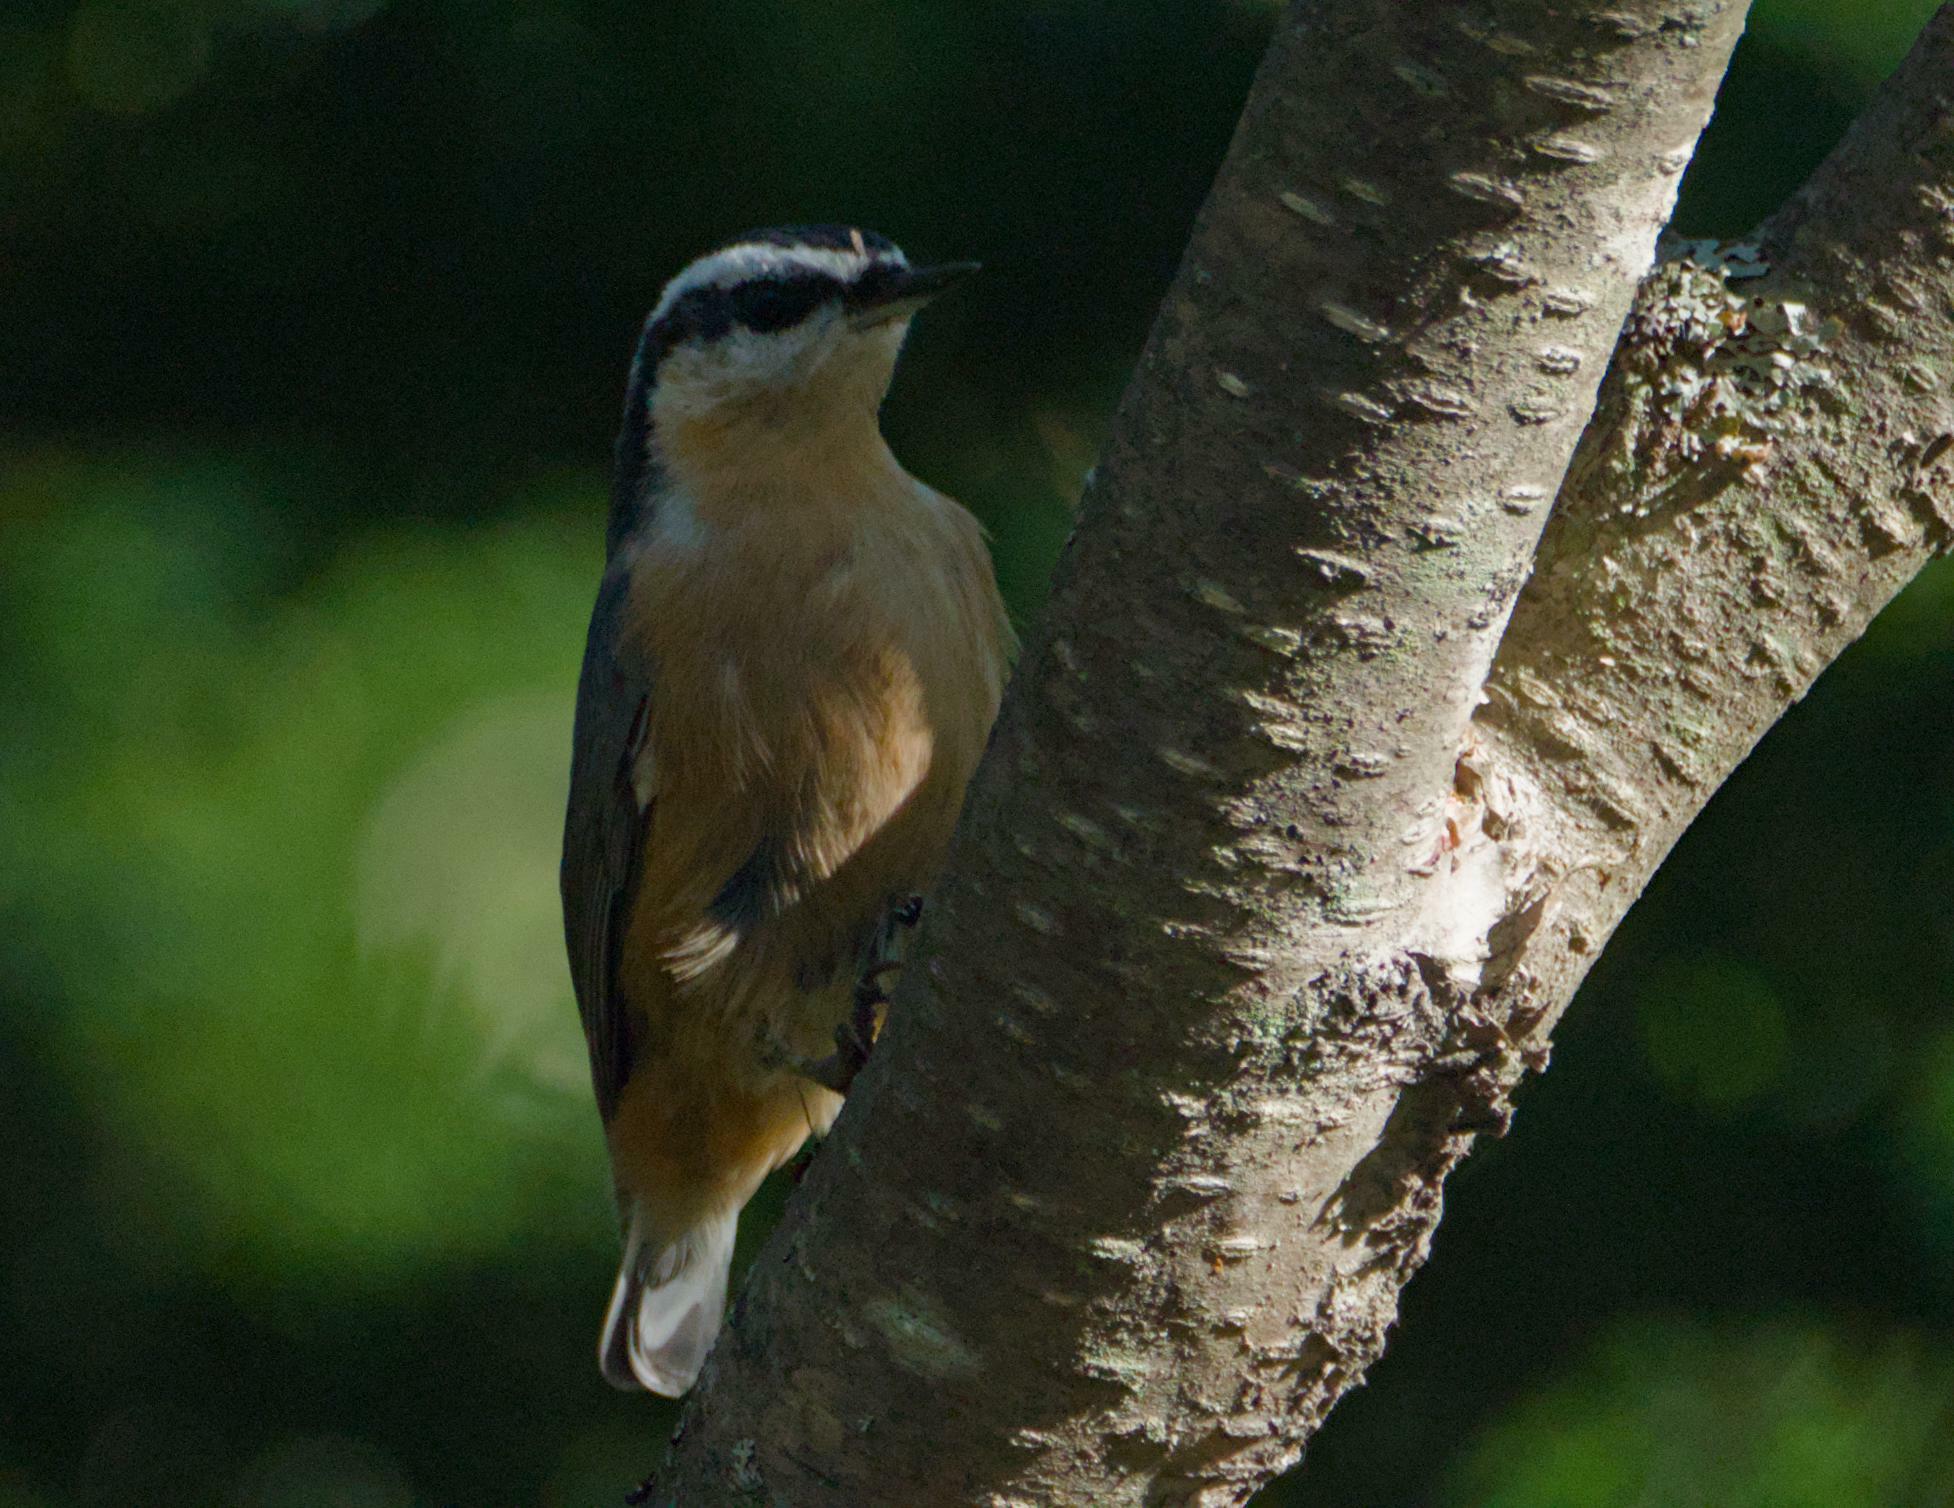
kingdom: Animalia
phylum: Chordata
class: Aves
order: Passeriformes
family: Sittidae
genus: Sitta
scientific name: Sitta canadensis
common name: Red-breasted nuthatch
